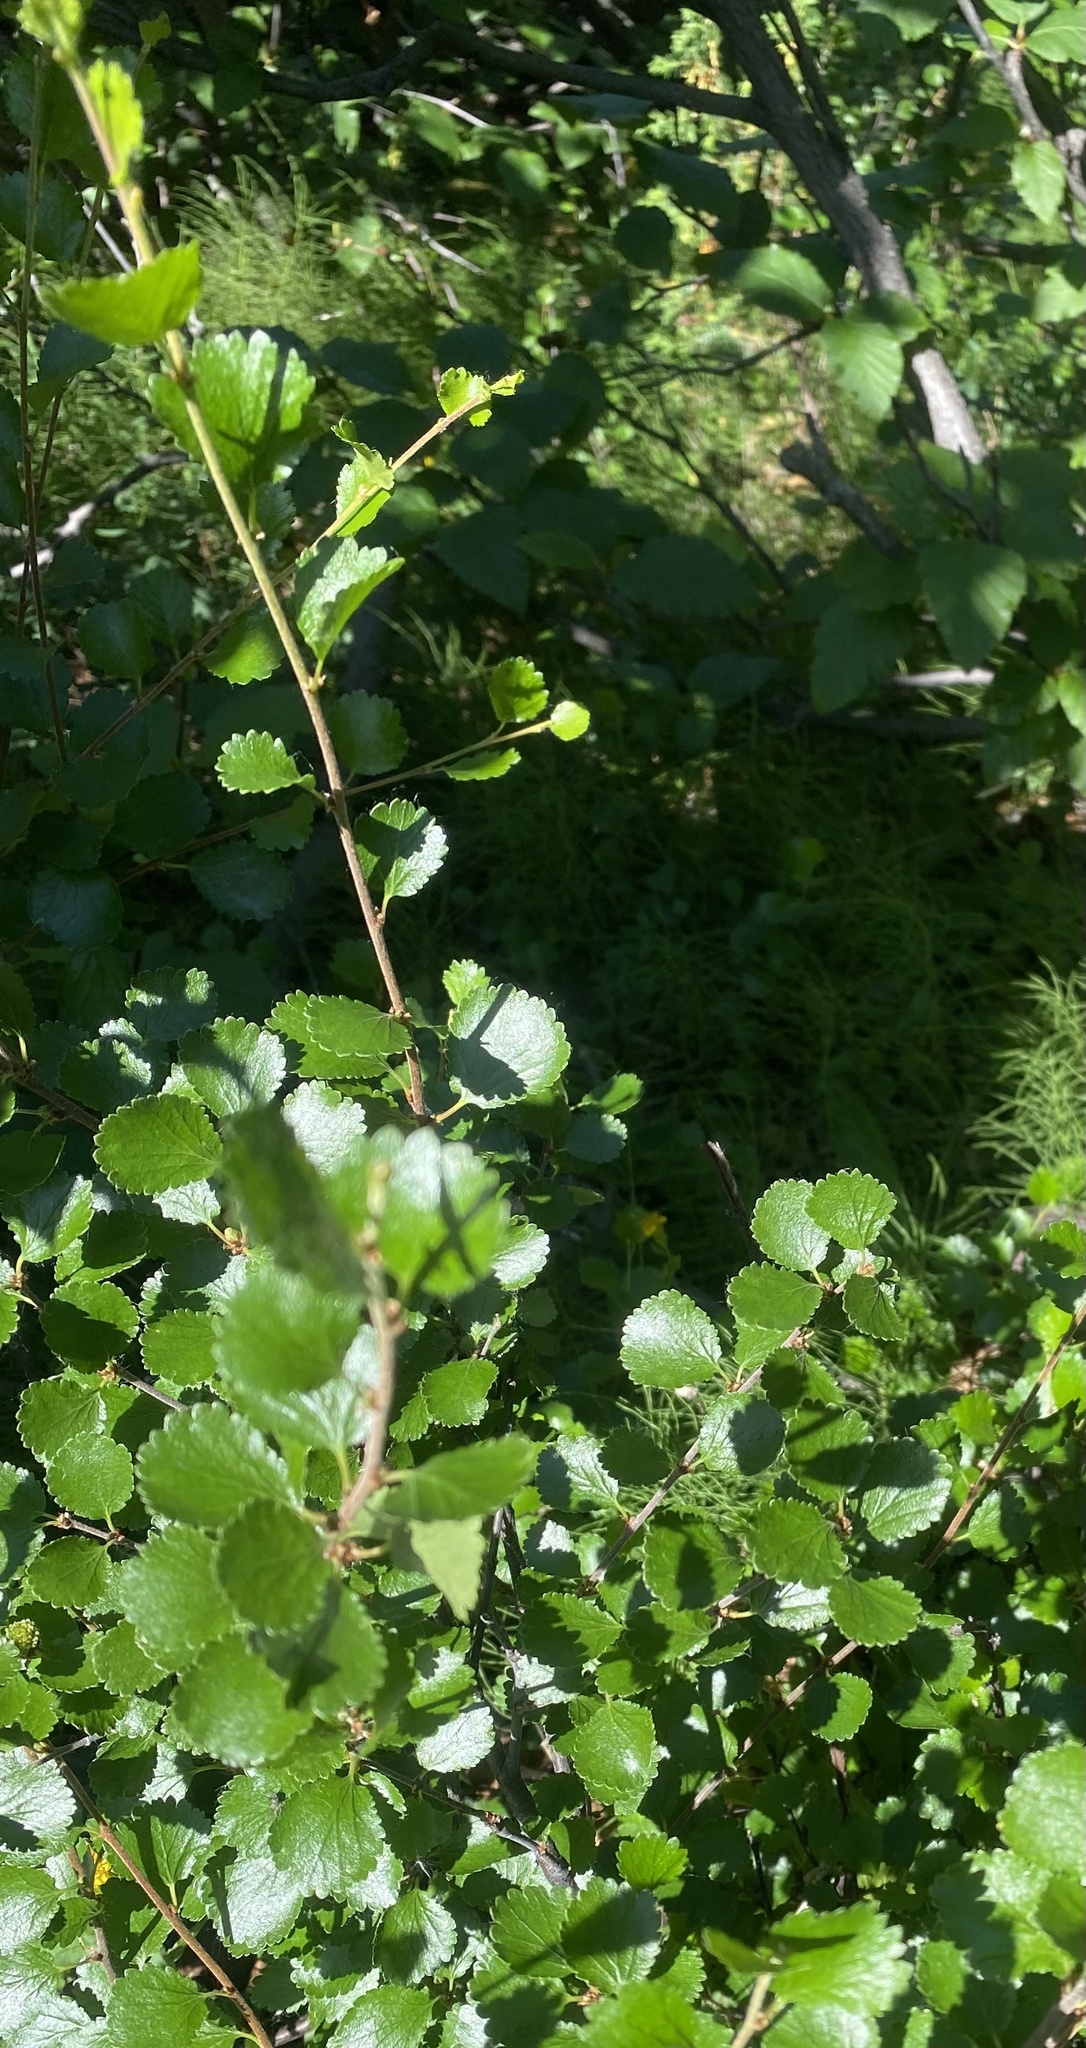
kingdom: Plantae
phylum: Tracheophyta
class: Magnoliopsida
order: Fagales
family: Betulaceae
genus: Betula
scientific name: Betula nana
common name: Arctic dwarf birch
